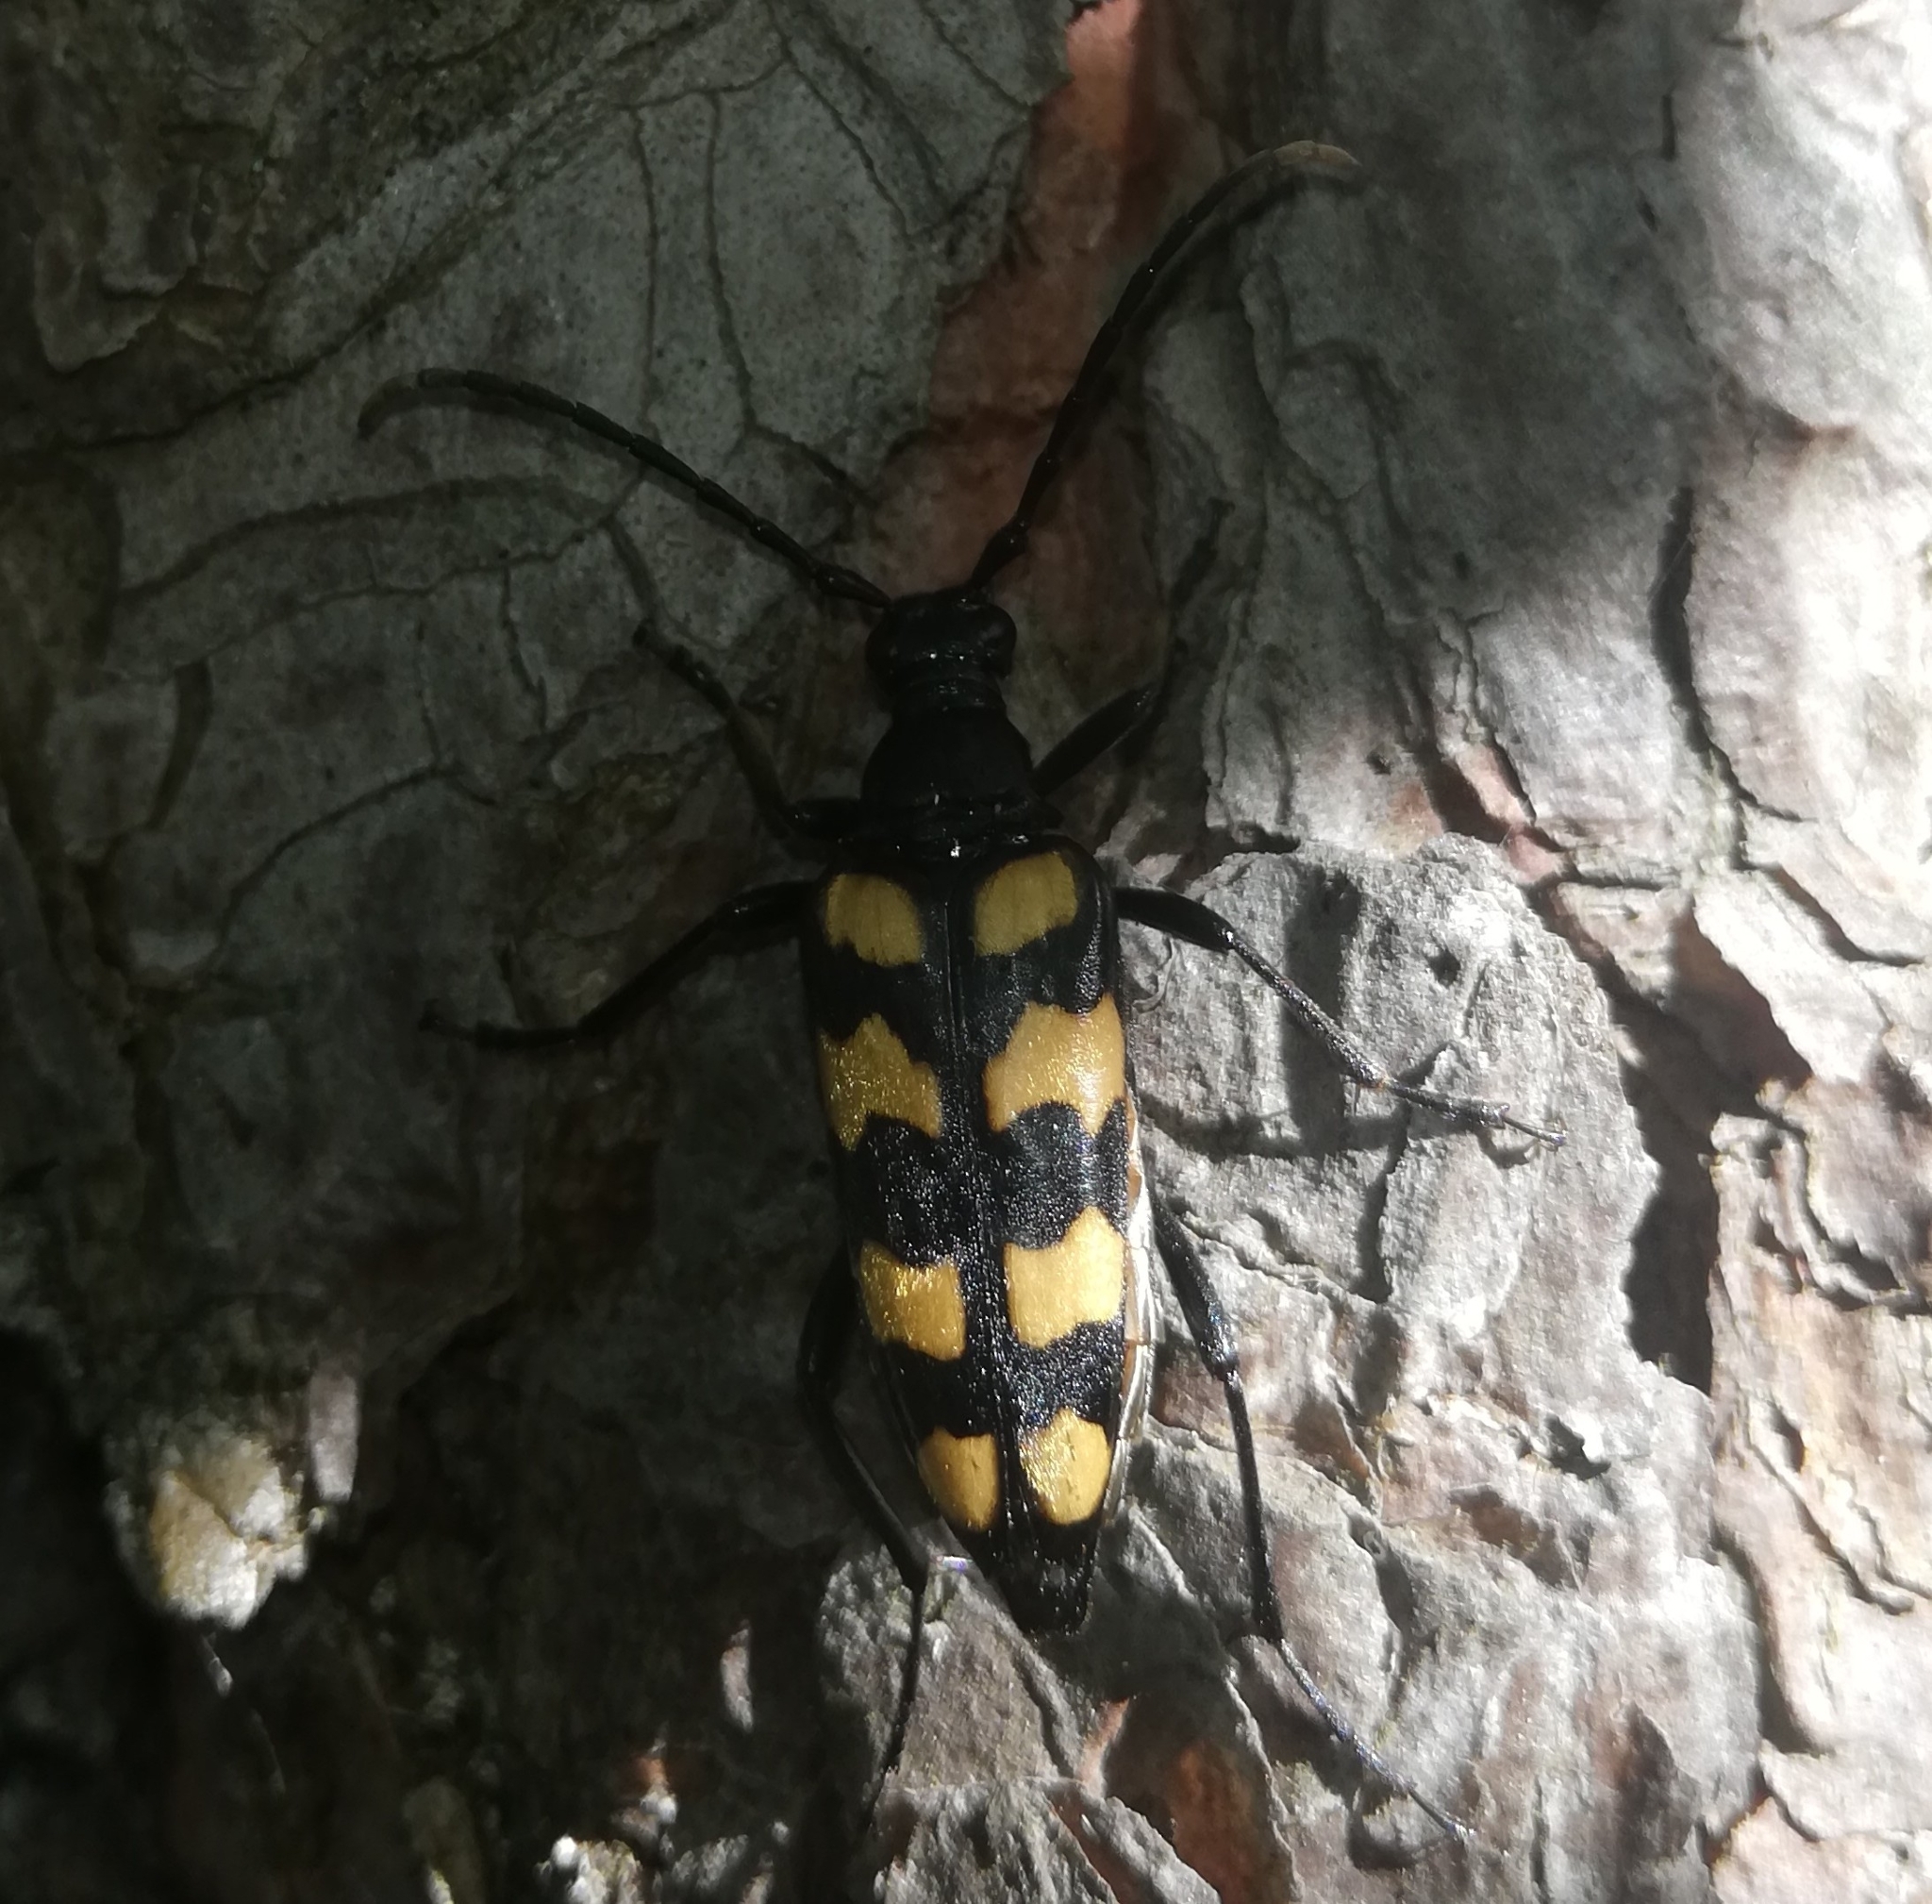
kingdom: Animalia
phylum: Arthropoda
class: Insecta
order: Coleoptera
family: Cerambycidae
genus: Leptura
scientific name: Leptura quadrifasciata
